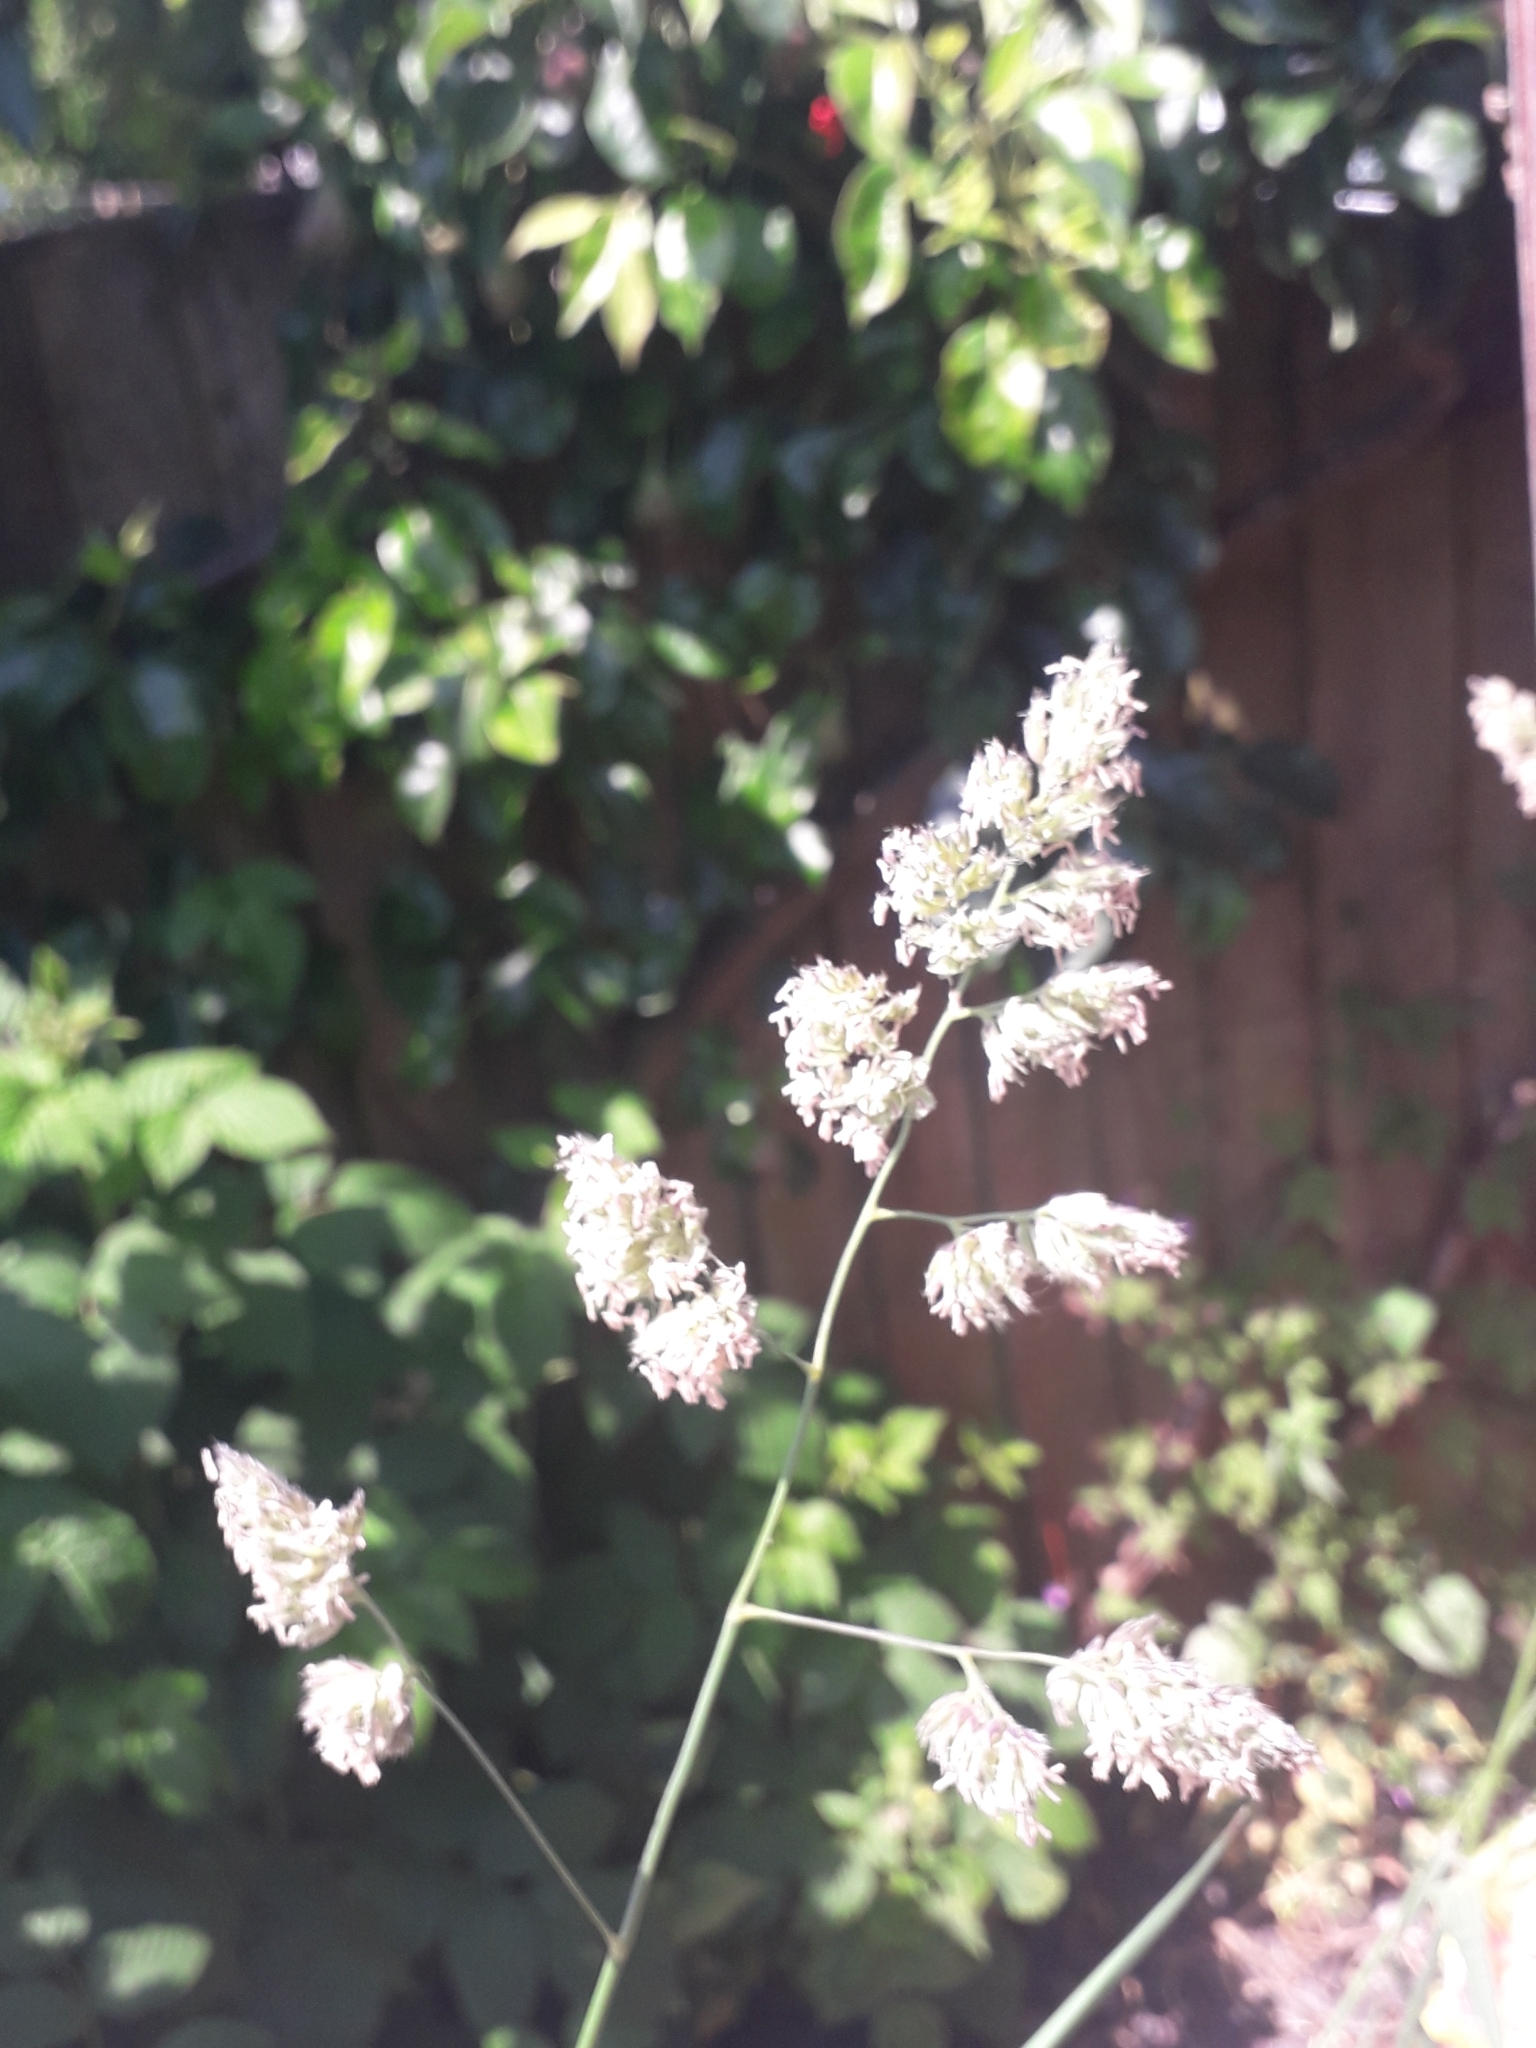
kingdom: Plantae
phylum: Tracheophyta
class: Liliopsida
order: Poales
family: Poaceae
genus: Dactylis
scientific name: Dactylis glomerata
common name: Orchardgrass
